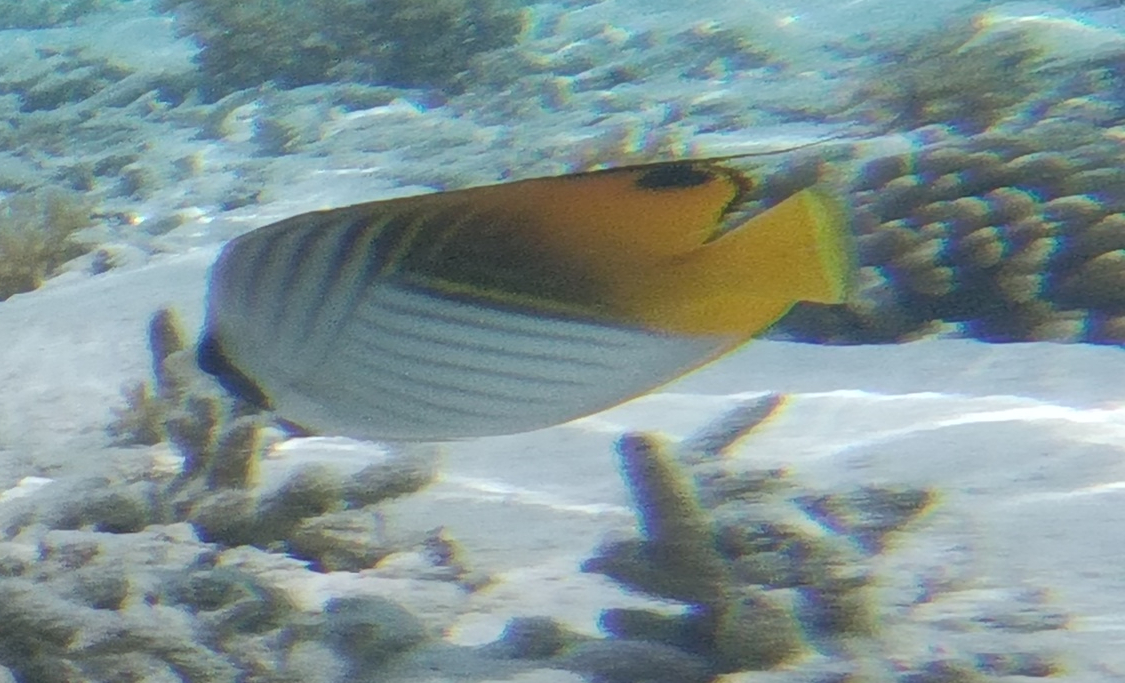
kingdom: Animalia
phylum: Chordata
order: Perciformes
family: Chaetodontidae
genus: Chaetodon
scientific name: Chaetodon auriga
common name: Threadfin butterflyfish
